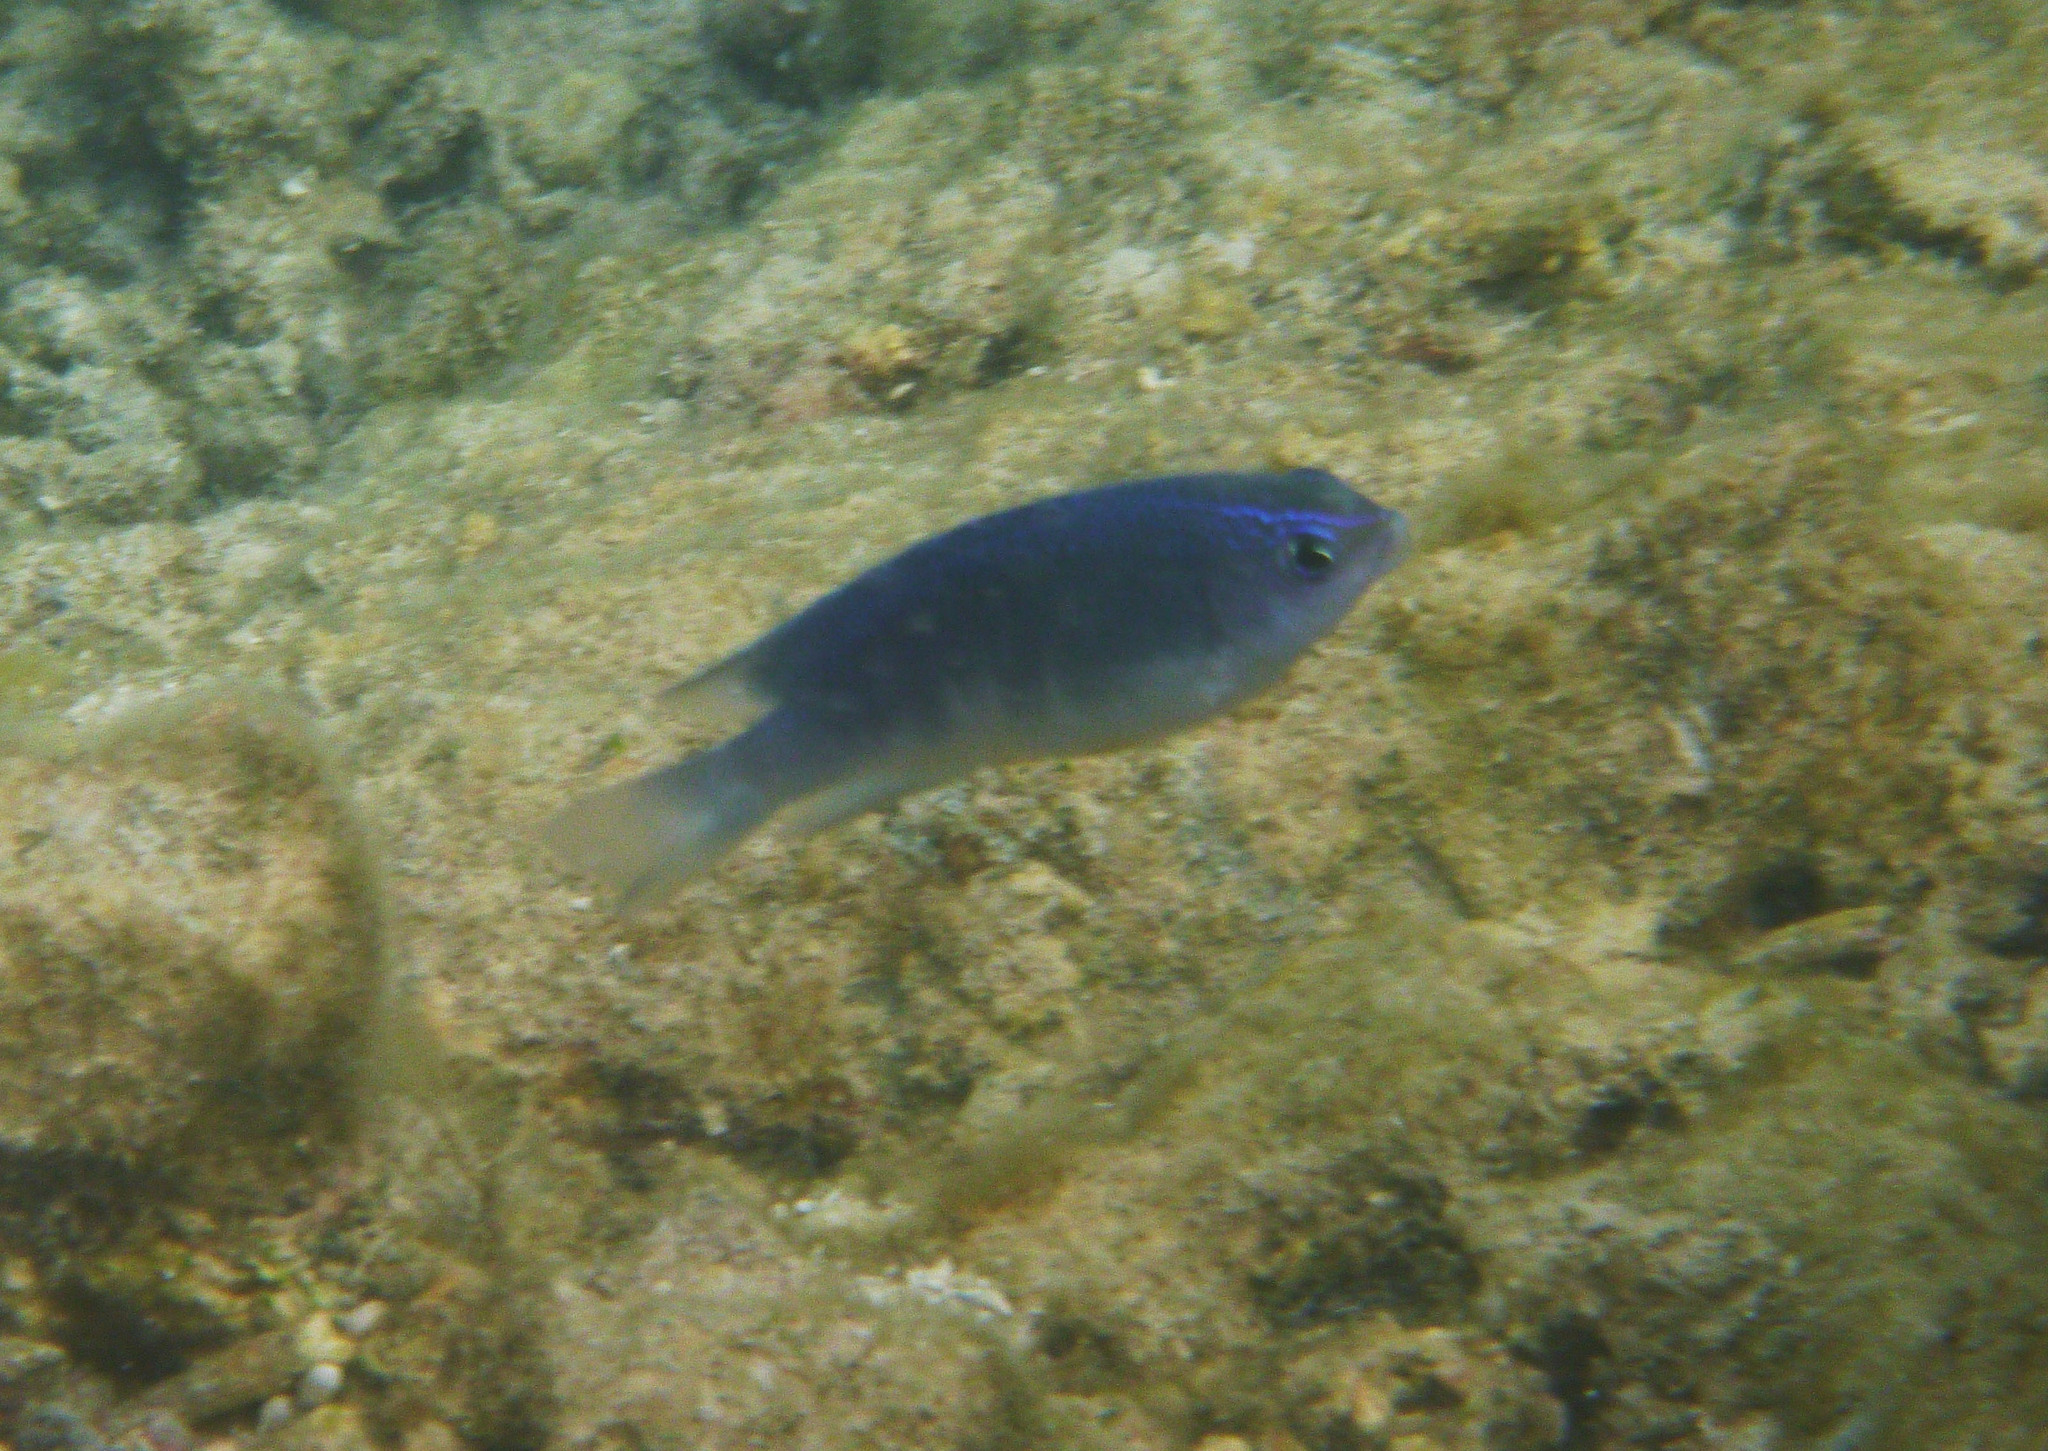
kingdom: Animalia
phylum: Chordata
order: Perciformes
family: Pomacentridae
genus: Chrysiptera
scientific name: Chrysiptera glauca
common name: Grey demoiselle
